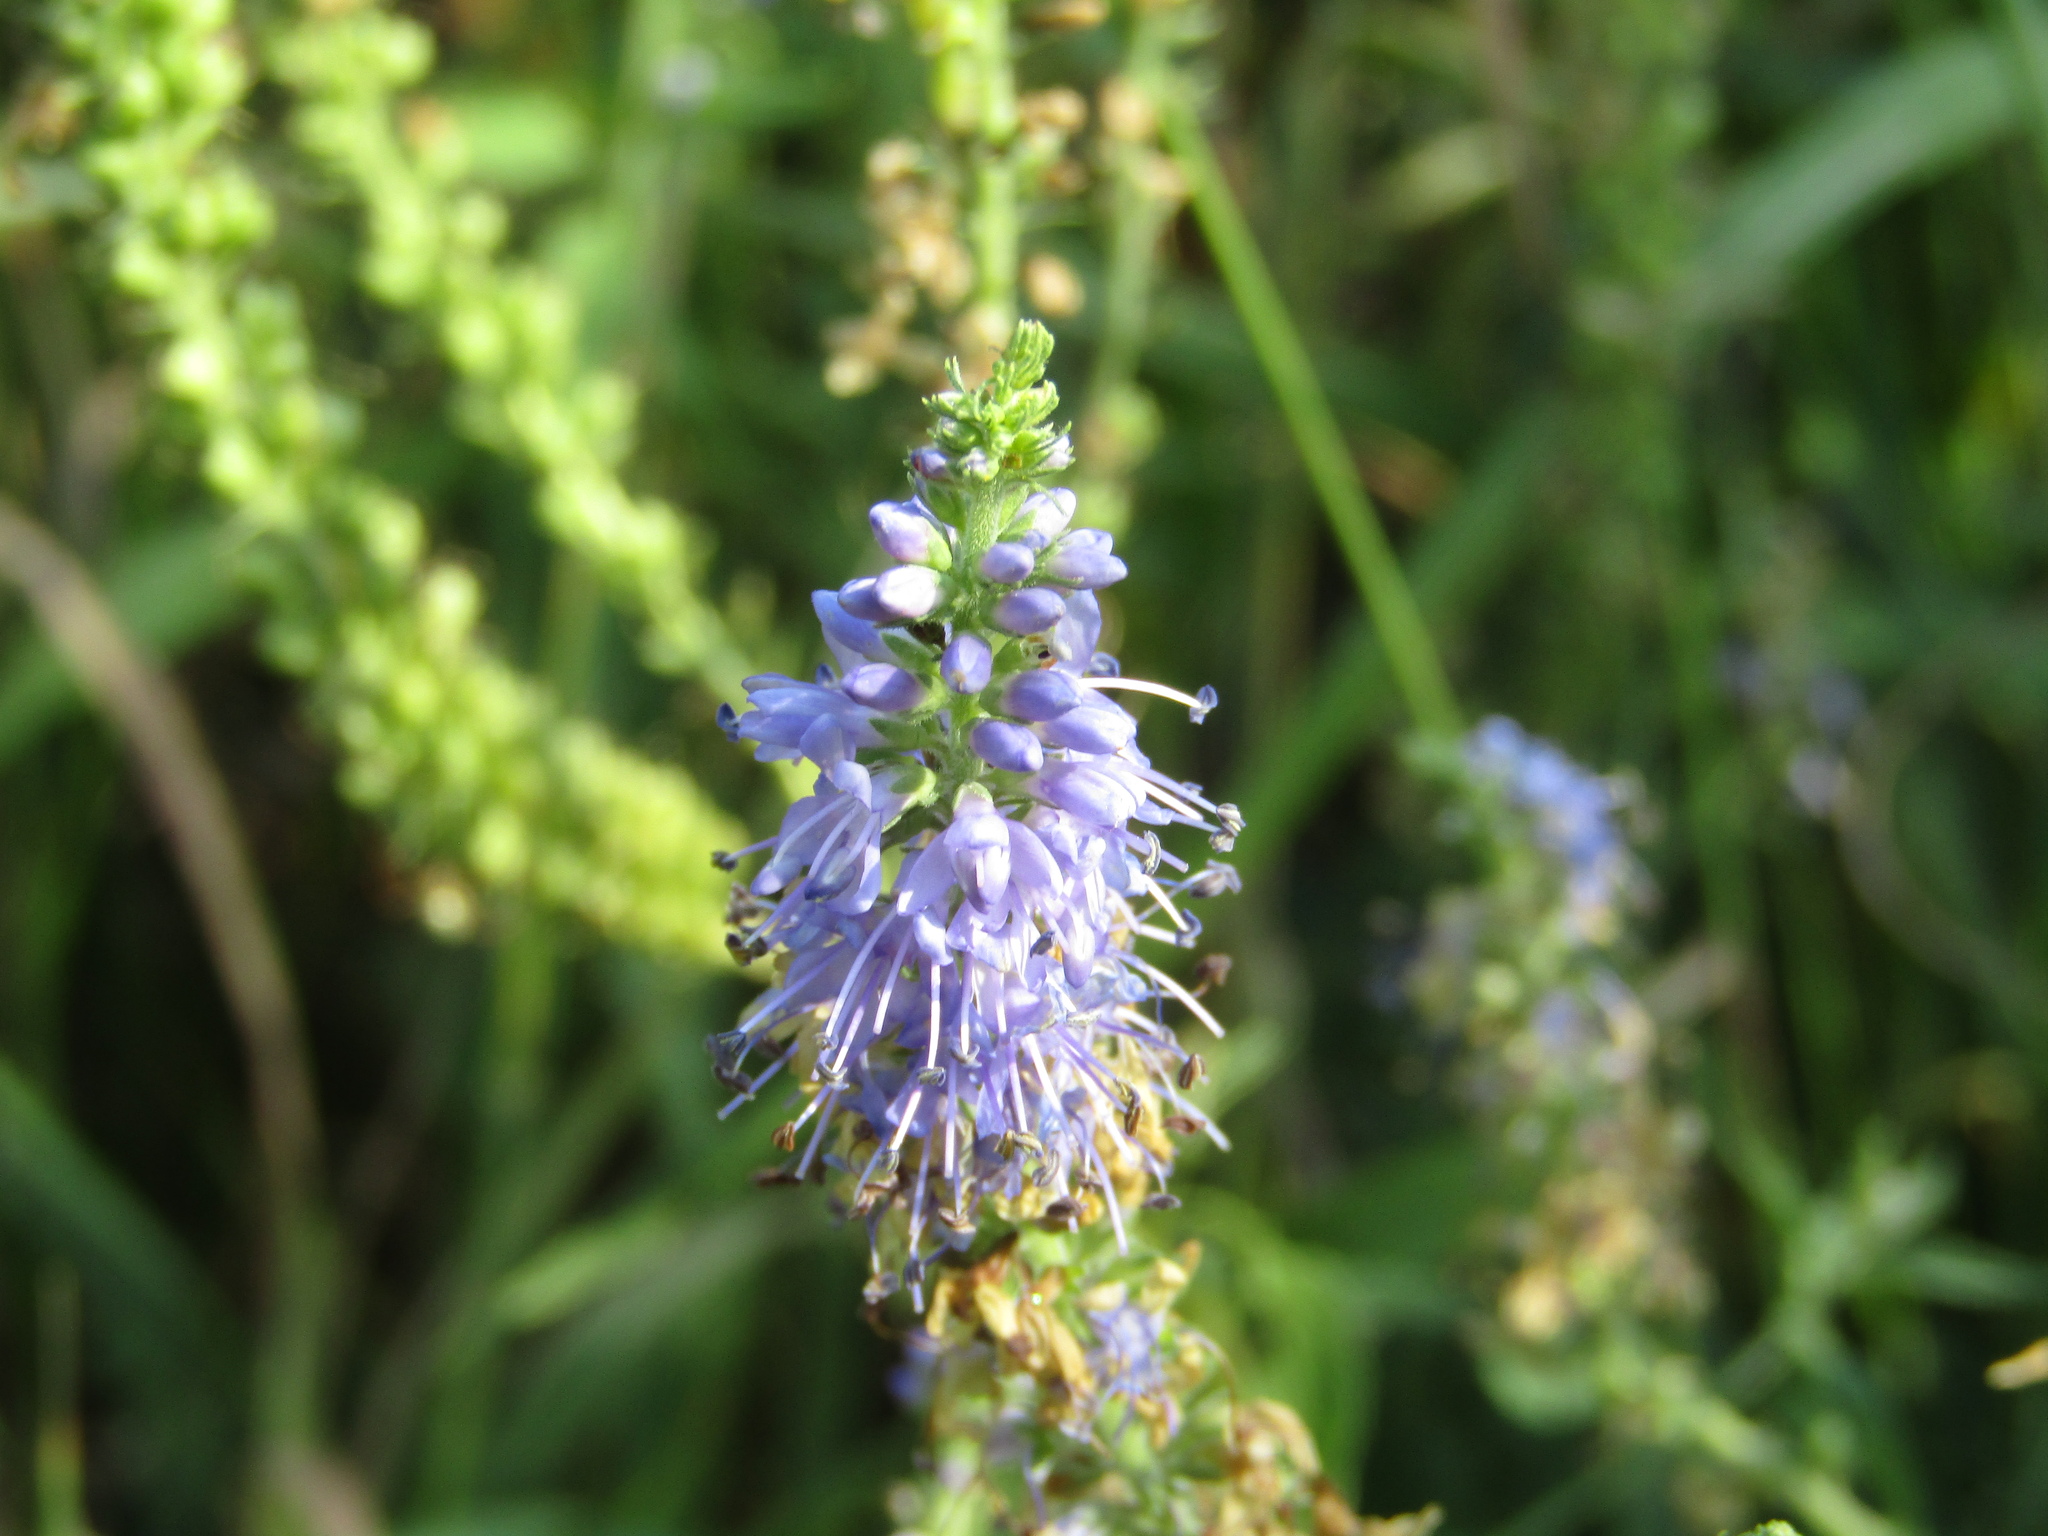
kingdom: Plantae
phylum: Tracheophyta
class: Magnoliopsida
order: Lamiales
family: Plantaginaceae
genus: Veronica
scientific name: Veronica longifolia
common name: Garden speedwell
